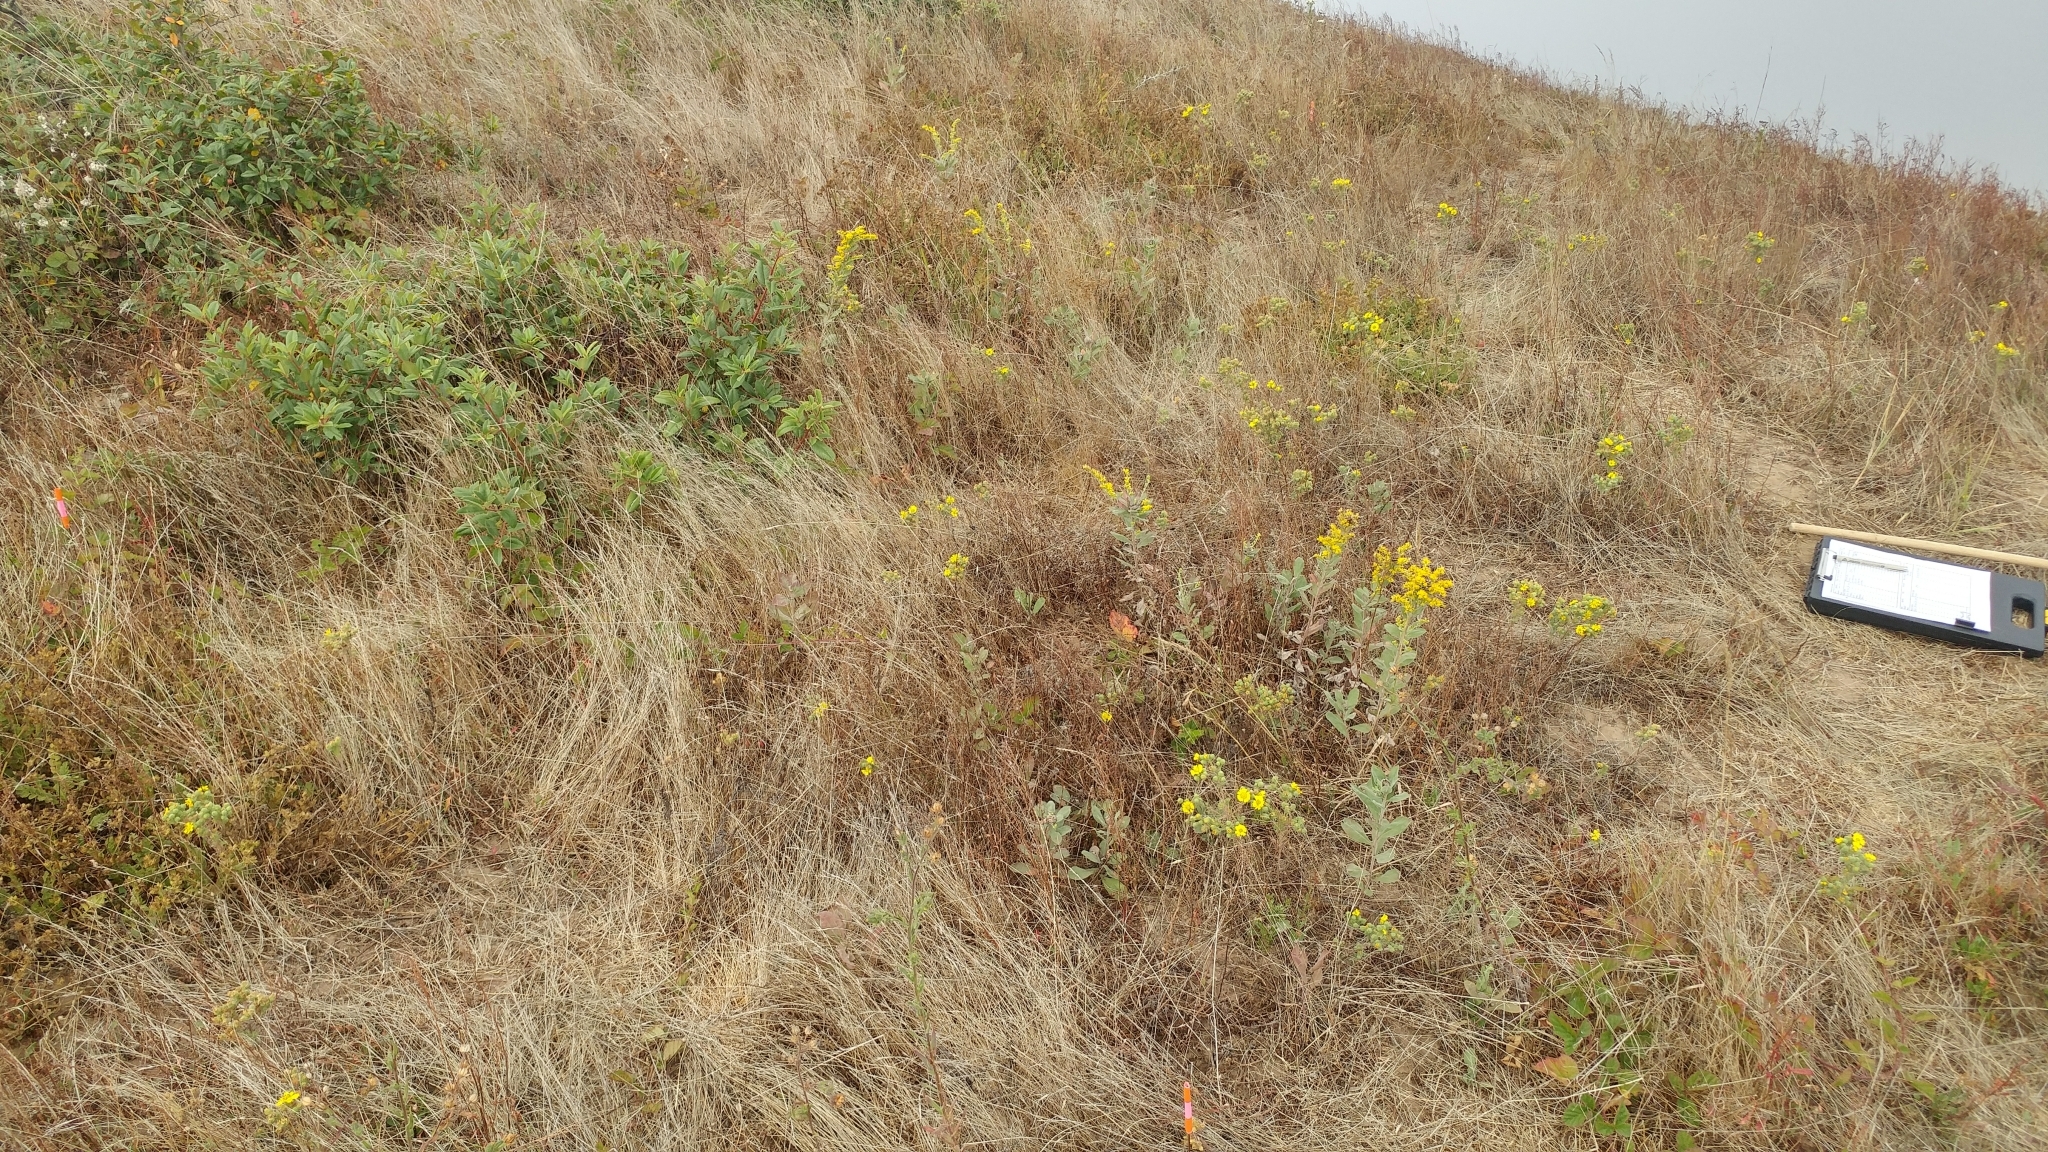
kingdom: Plantae
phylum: Tracheophyta
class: Magnoliopsida
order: Asterales
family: Asteraceae
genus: Deinandra
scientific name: Deinandra increscens
